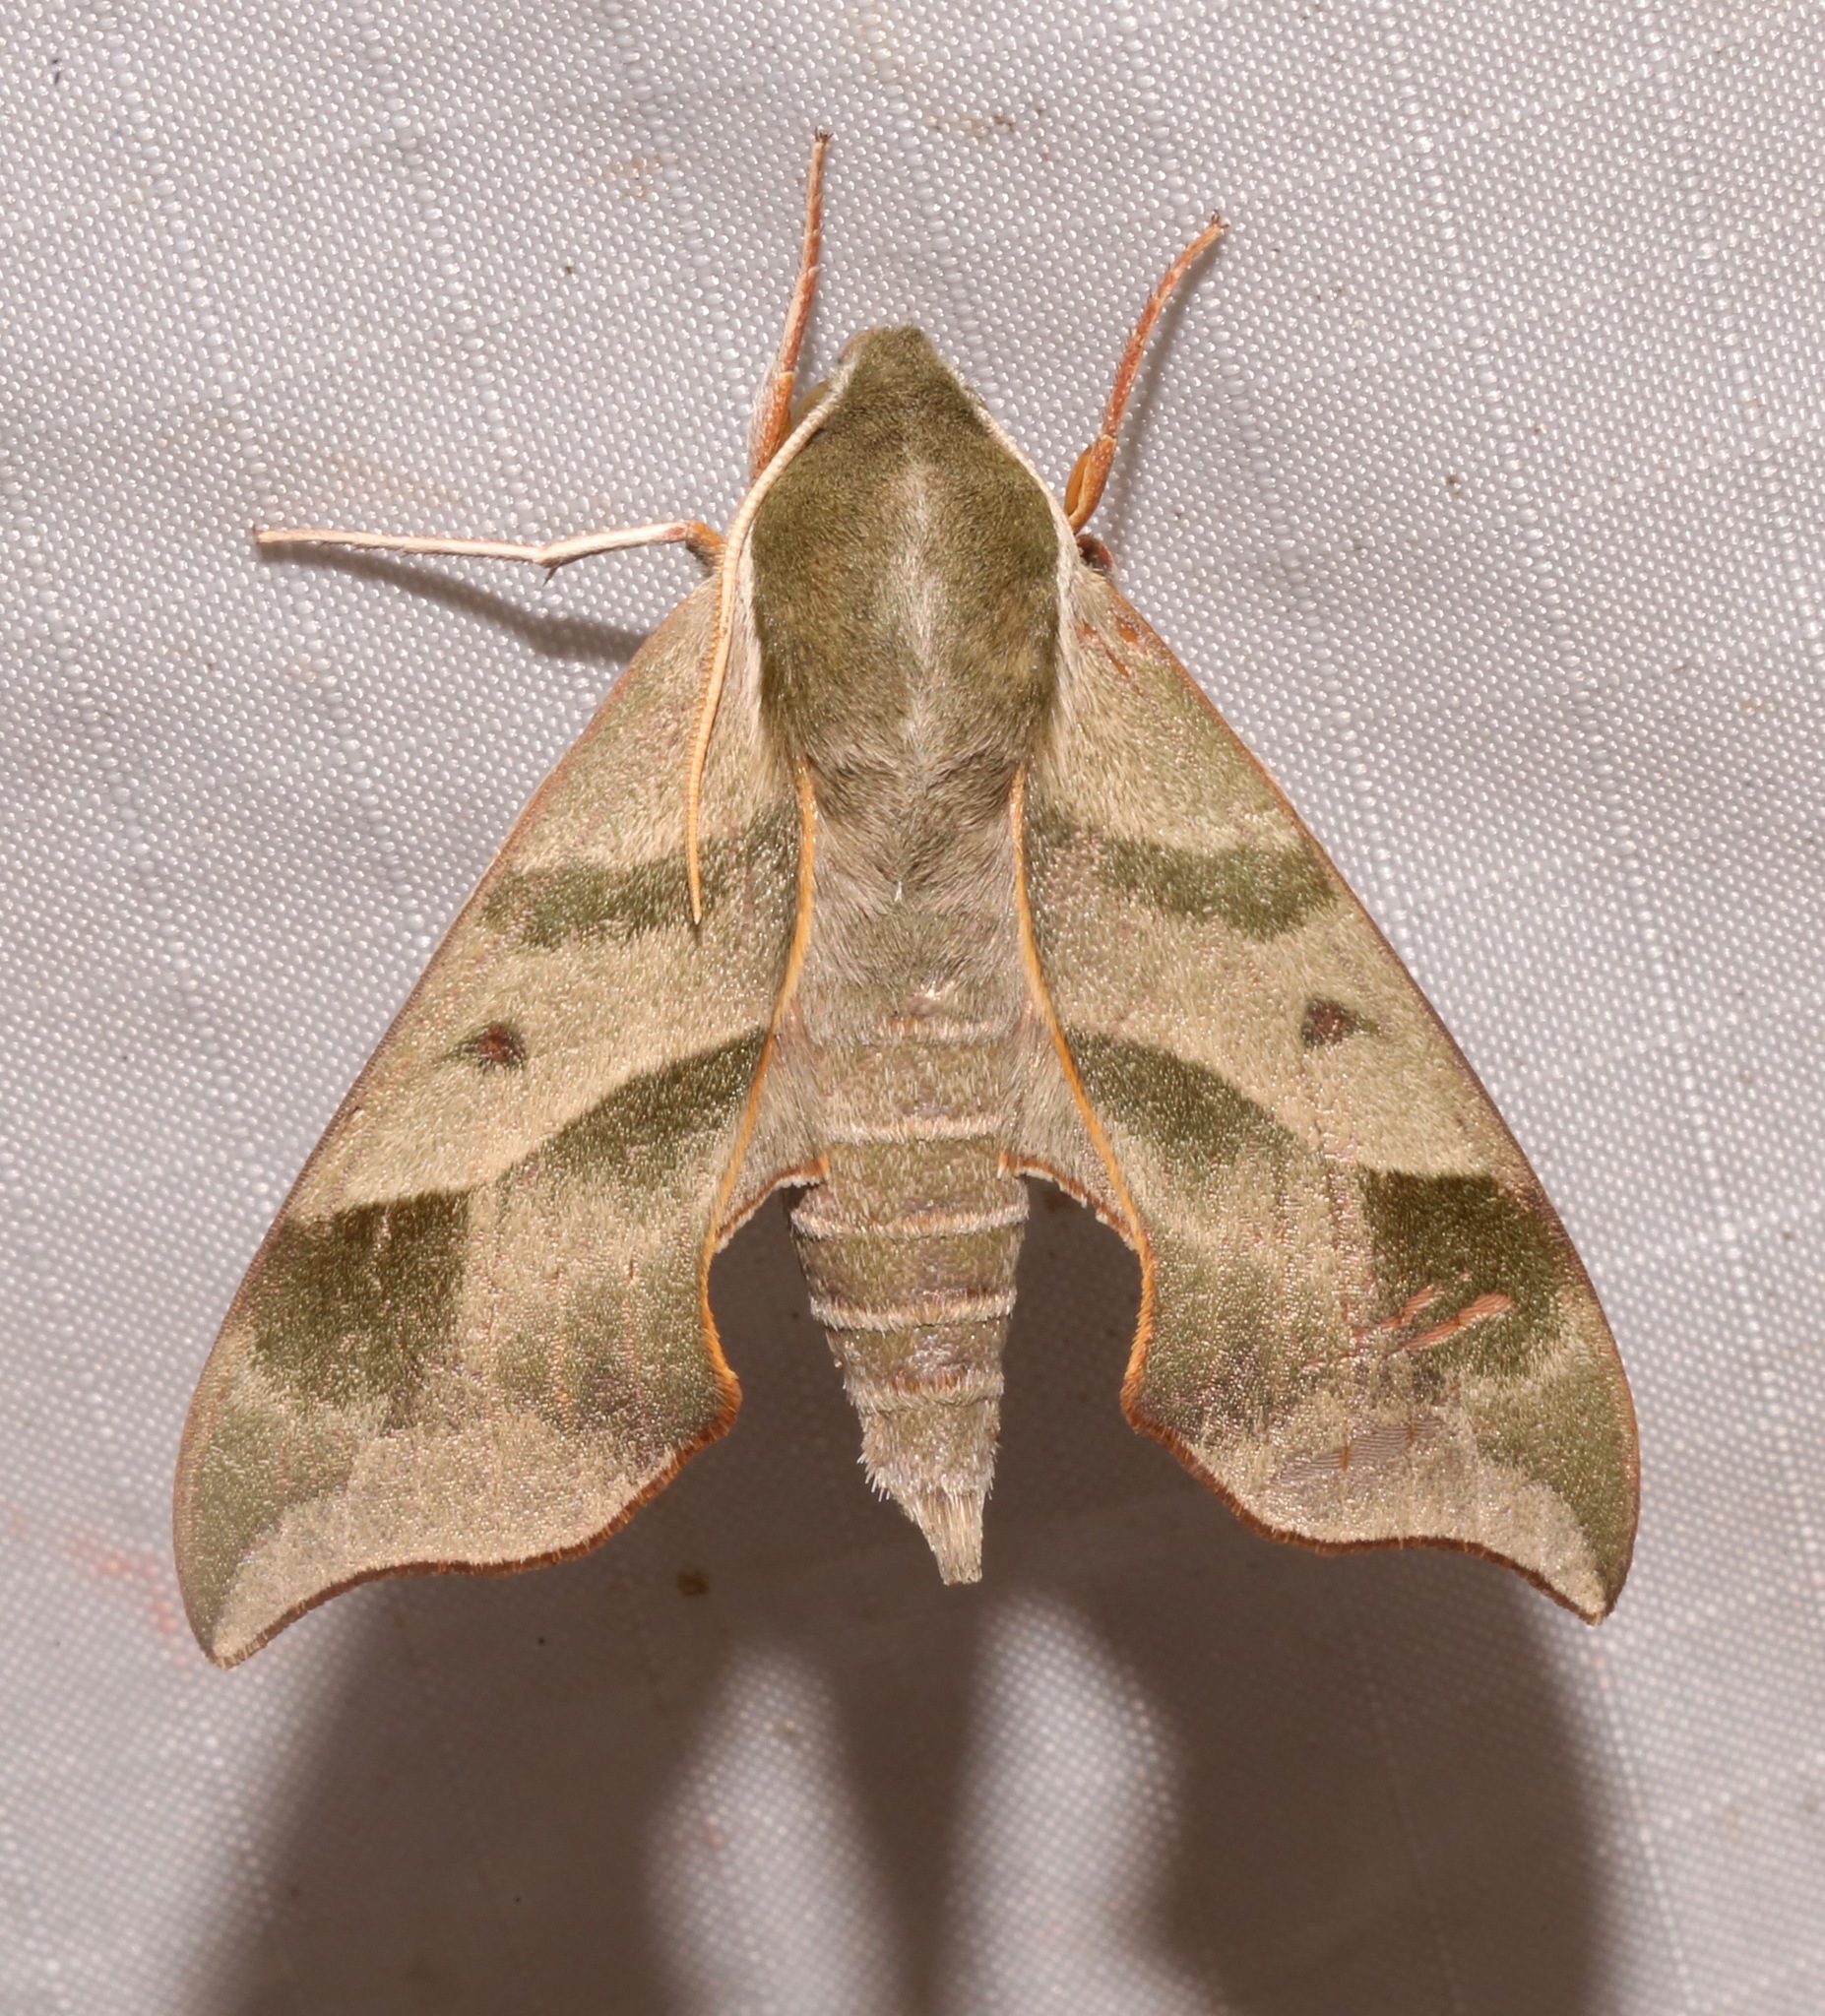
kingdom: Animalia
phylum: Arthropoda
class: Insecta
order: Lepidoptera
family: Sphingidae
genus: Darapsa
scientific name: Darapsa myron
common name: Hog sphinx
